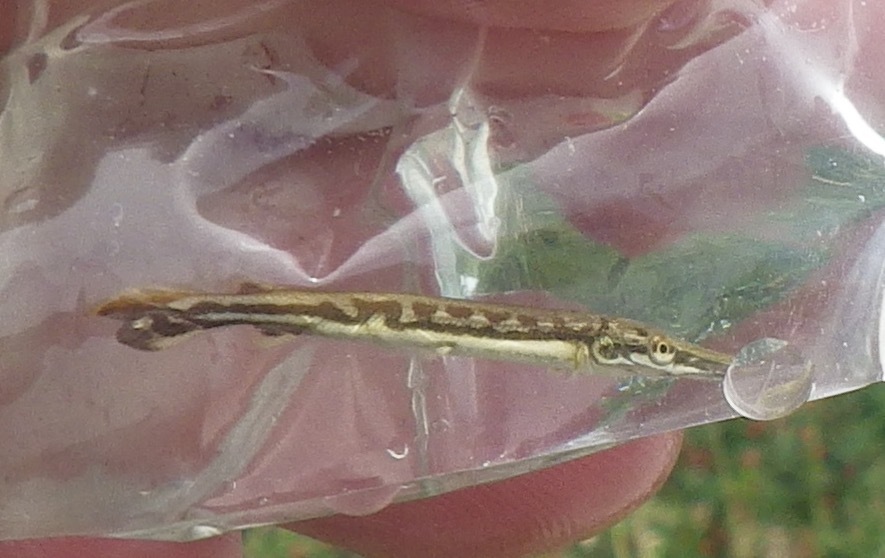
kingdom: Animalia
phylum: Chordata
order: Lepisosteiformes
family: Lepisosteidae
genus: Lepisosteus
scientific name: Lepisosteus platostomus
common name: Shortnose gar
